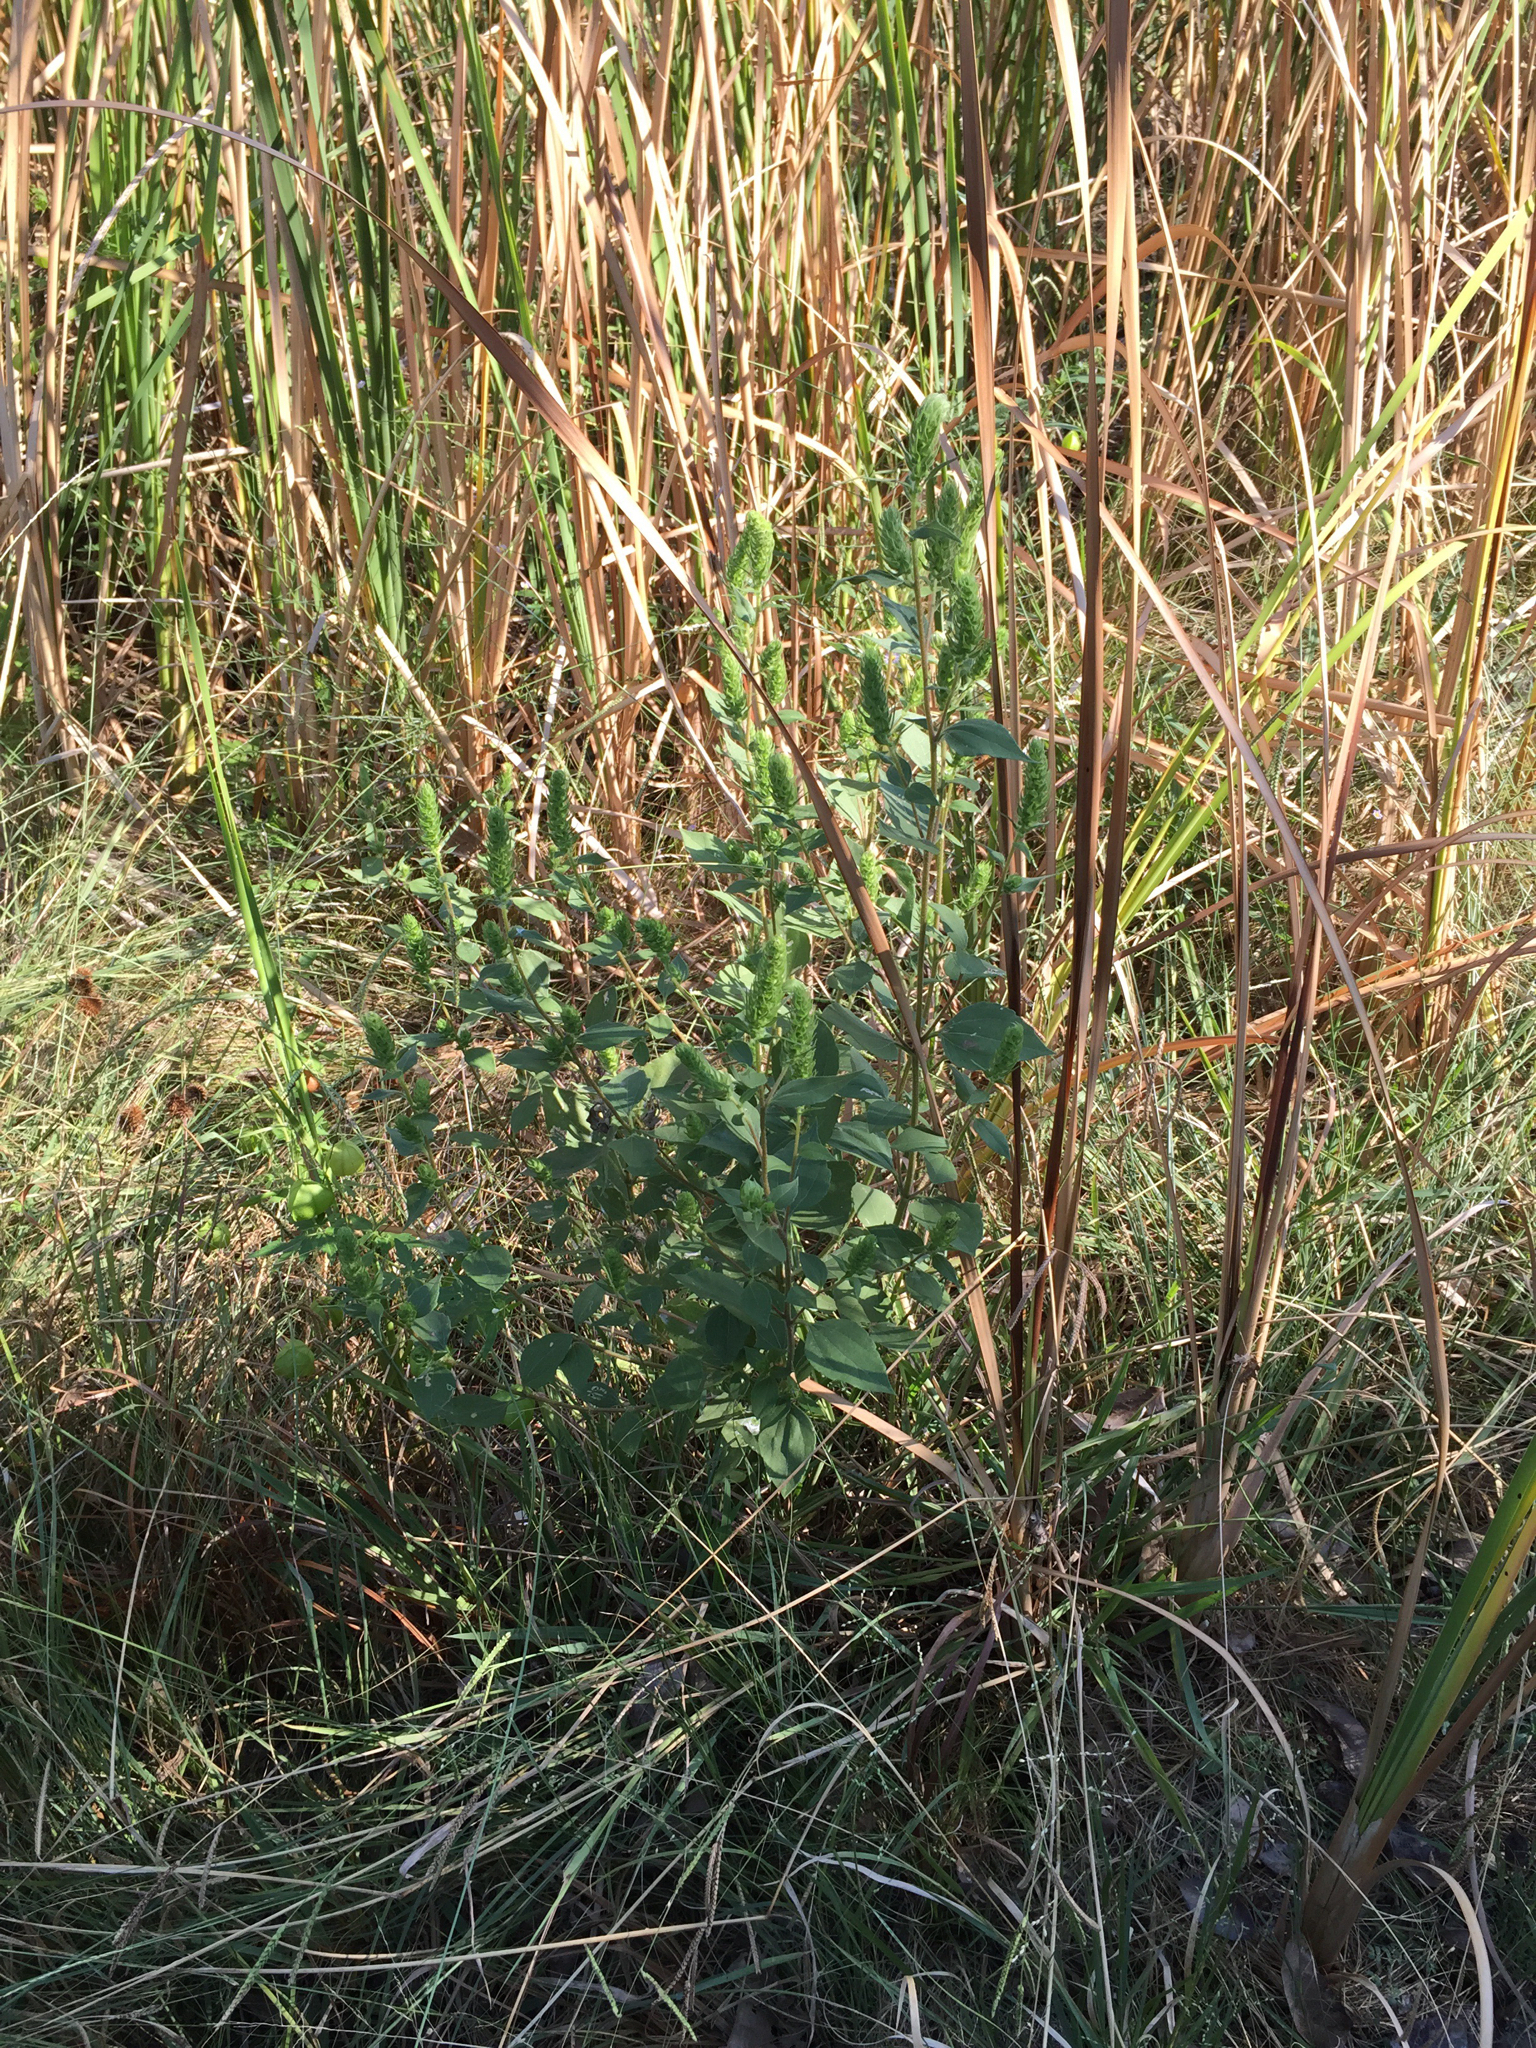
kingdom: Plantae
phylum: Tracheophyta
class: Magnoliopsida
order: Asterales
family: Asteraceae
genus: Iva
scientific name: Iva annua
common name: Marsh-elder
